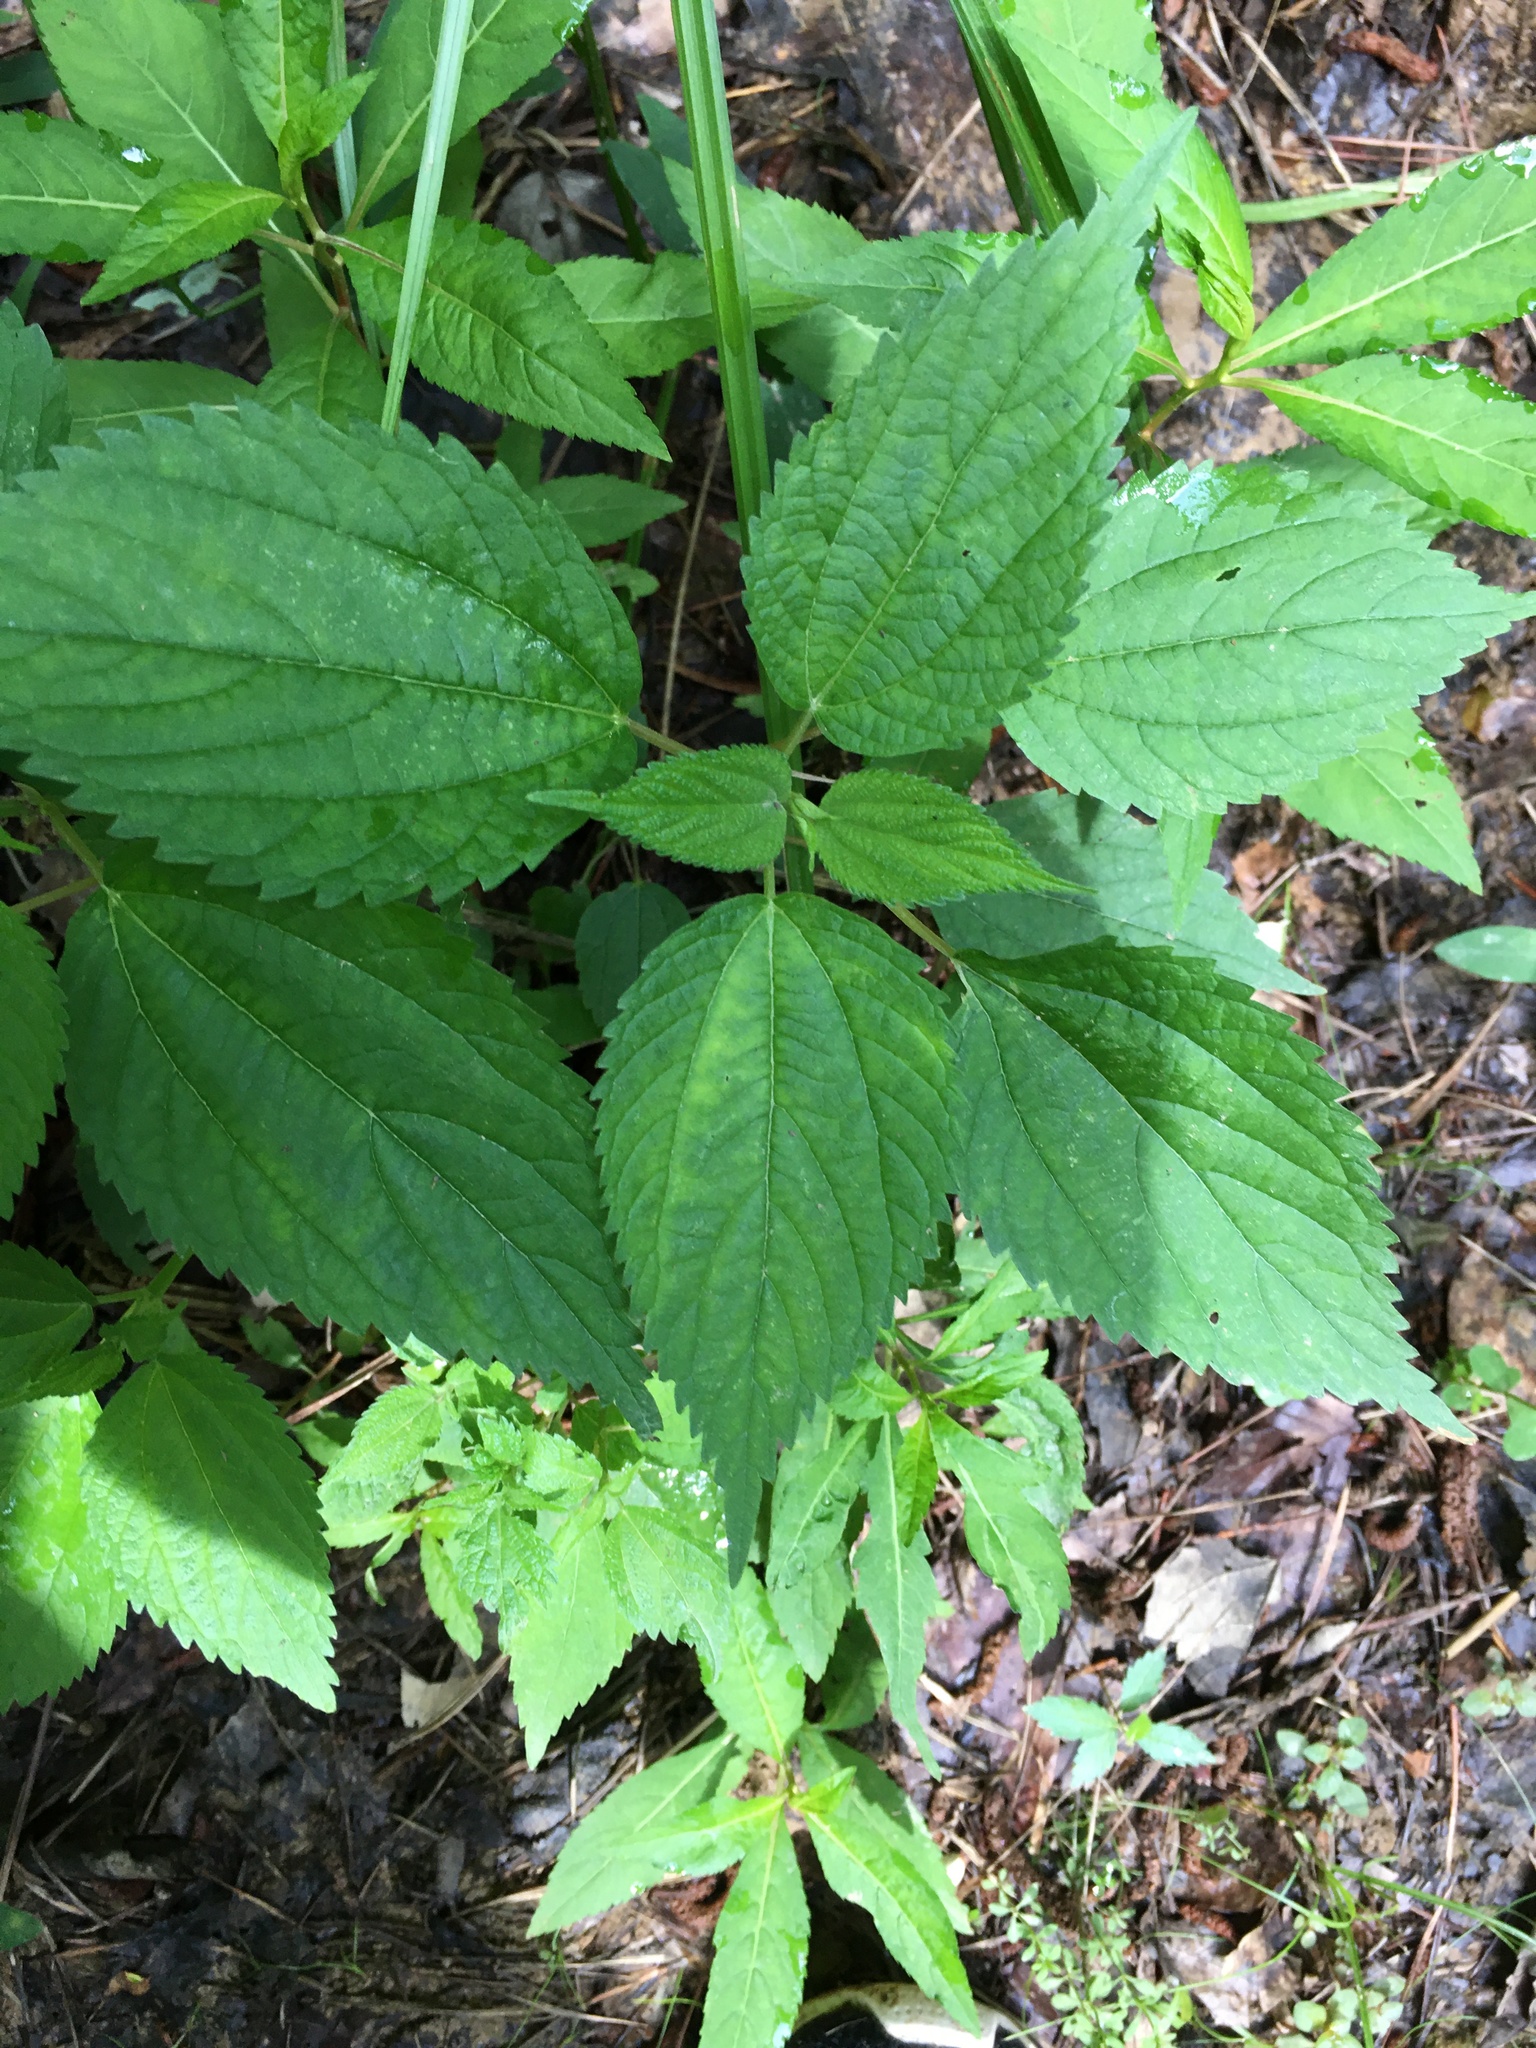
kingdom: Plantae
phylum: Tracheophyta
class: Magnoliopsida
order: Rosales
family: Urticaceae
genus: Boehmeria
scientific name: Boehmeria cylindrica
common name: Bog-hemp
